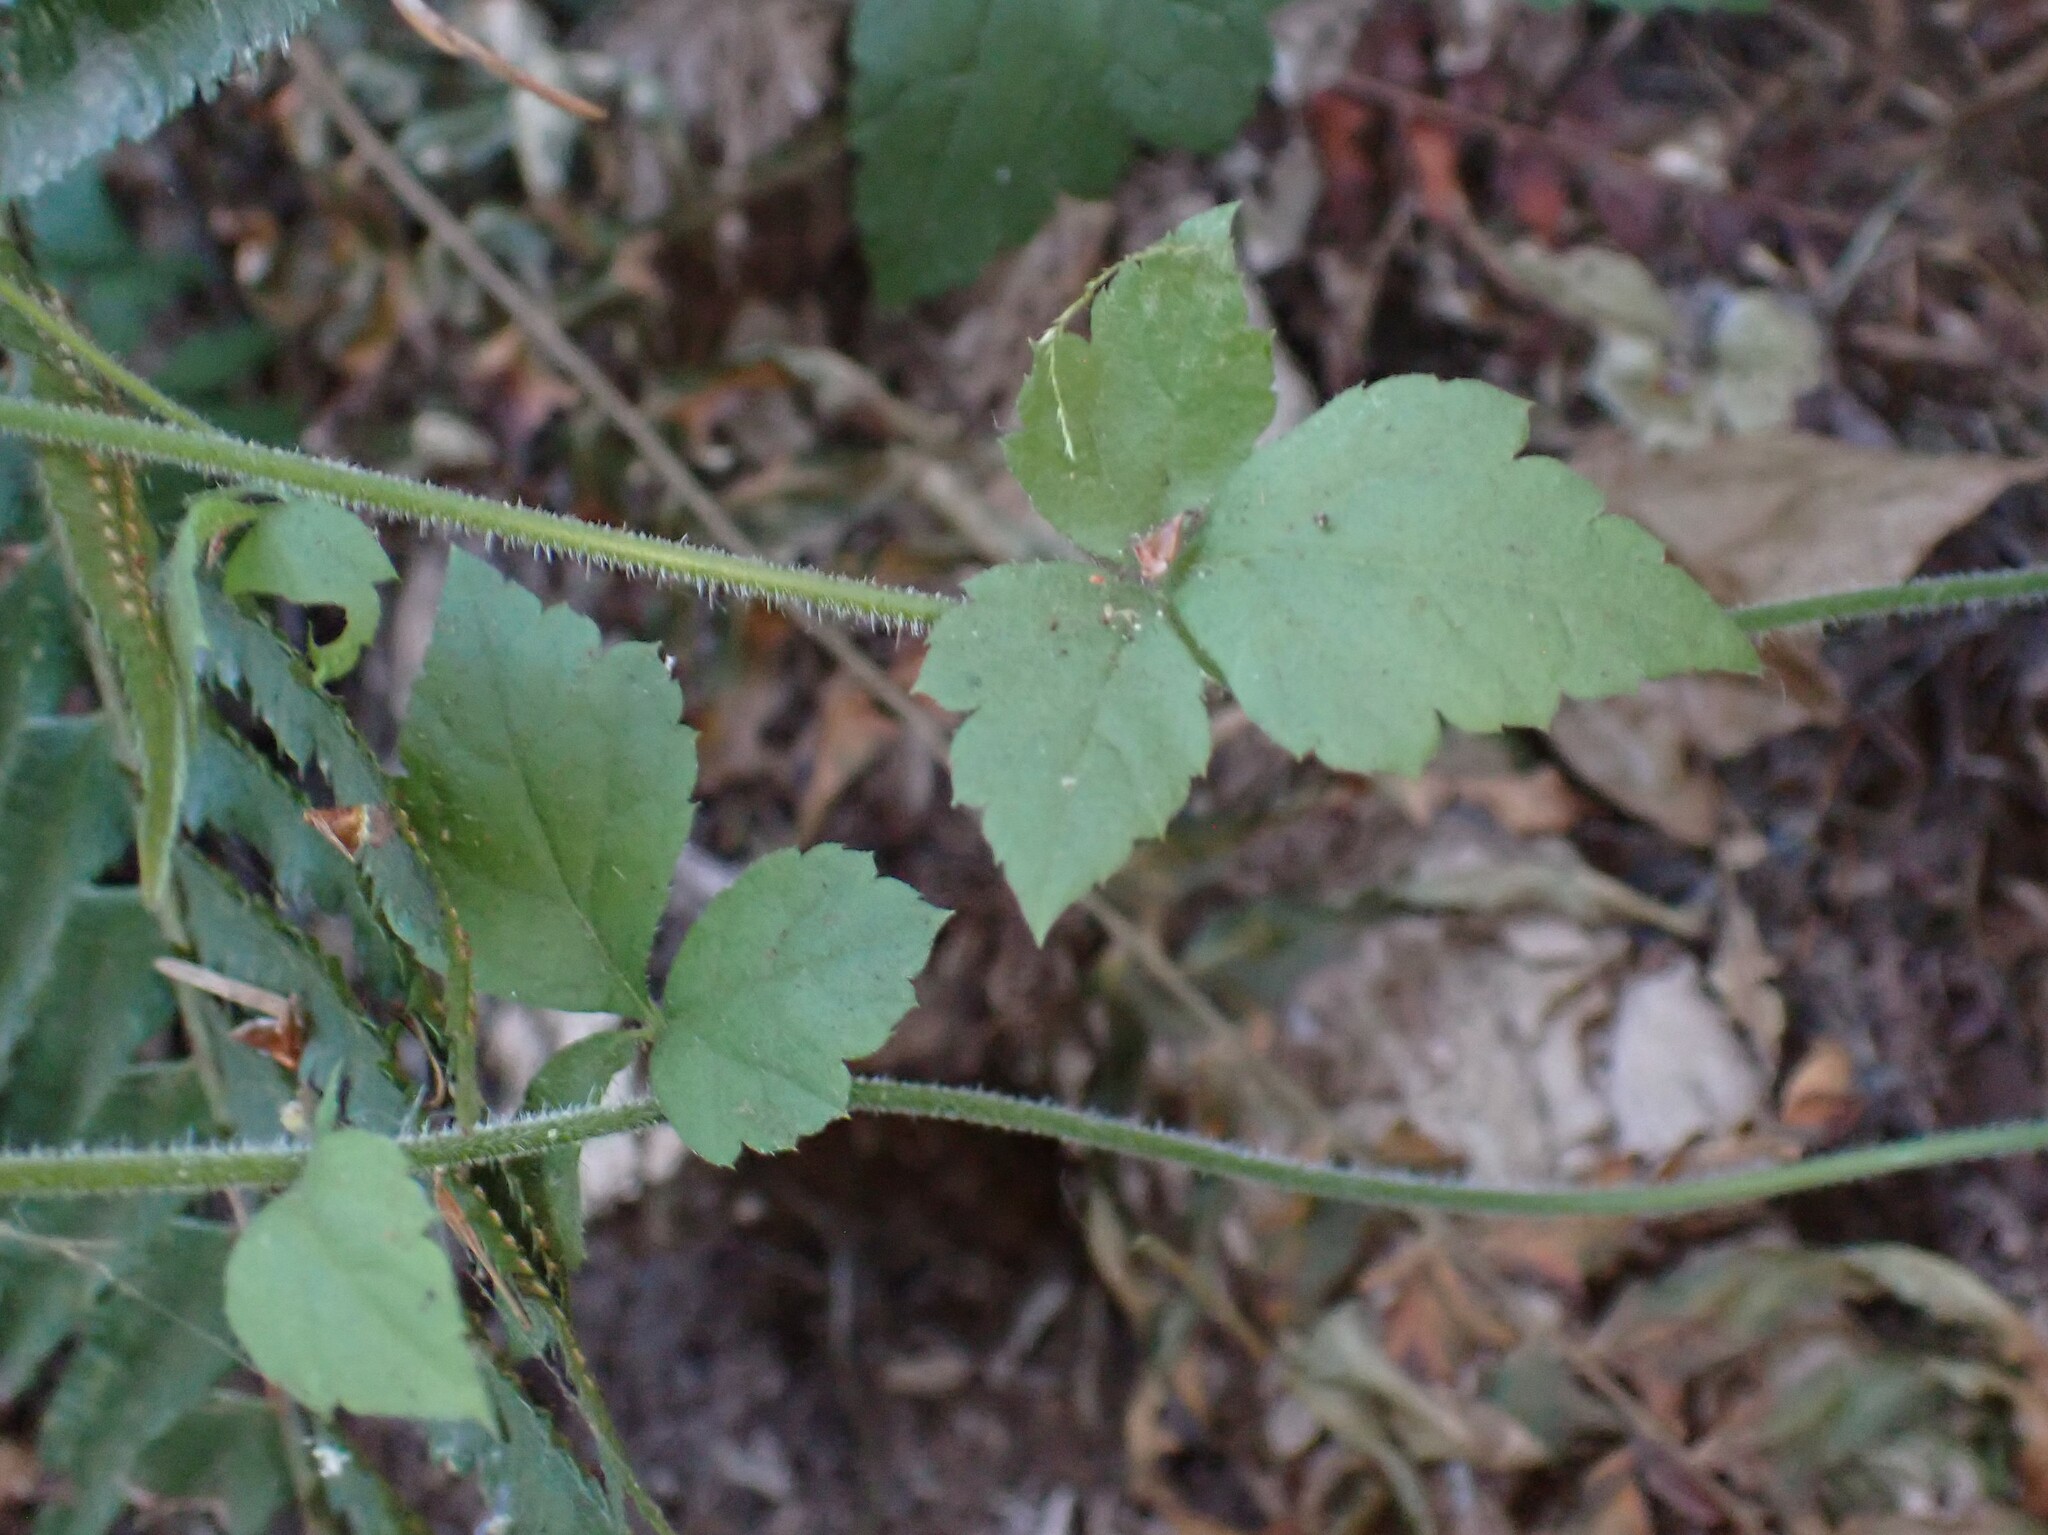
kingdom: Plantae
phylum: Tracheophyta
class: Magnoliopsida
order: Saxifragales
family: Saxifragaceae
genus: Tiarella
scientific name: Tiarella trifoliata
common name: Sugar-scoop
